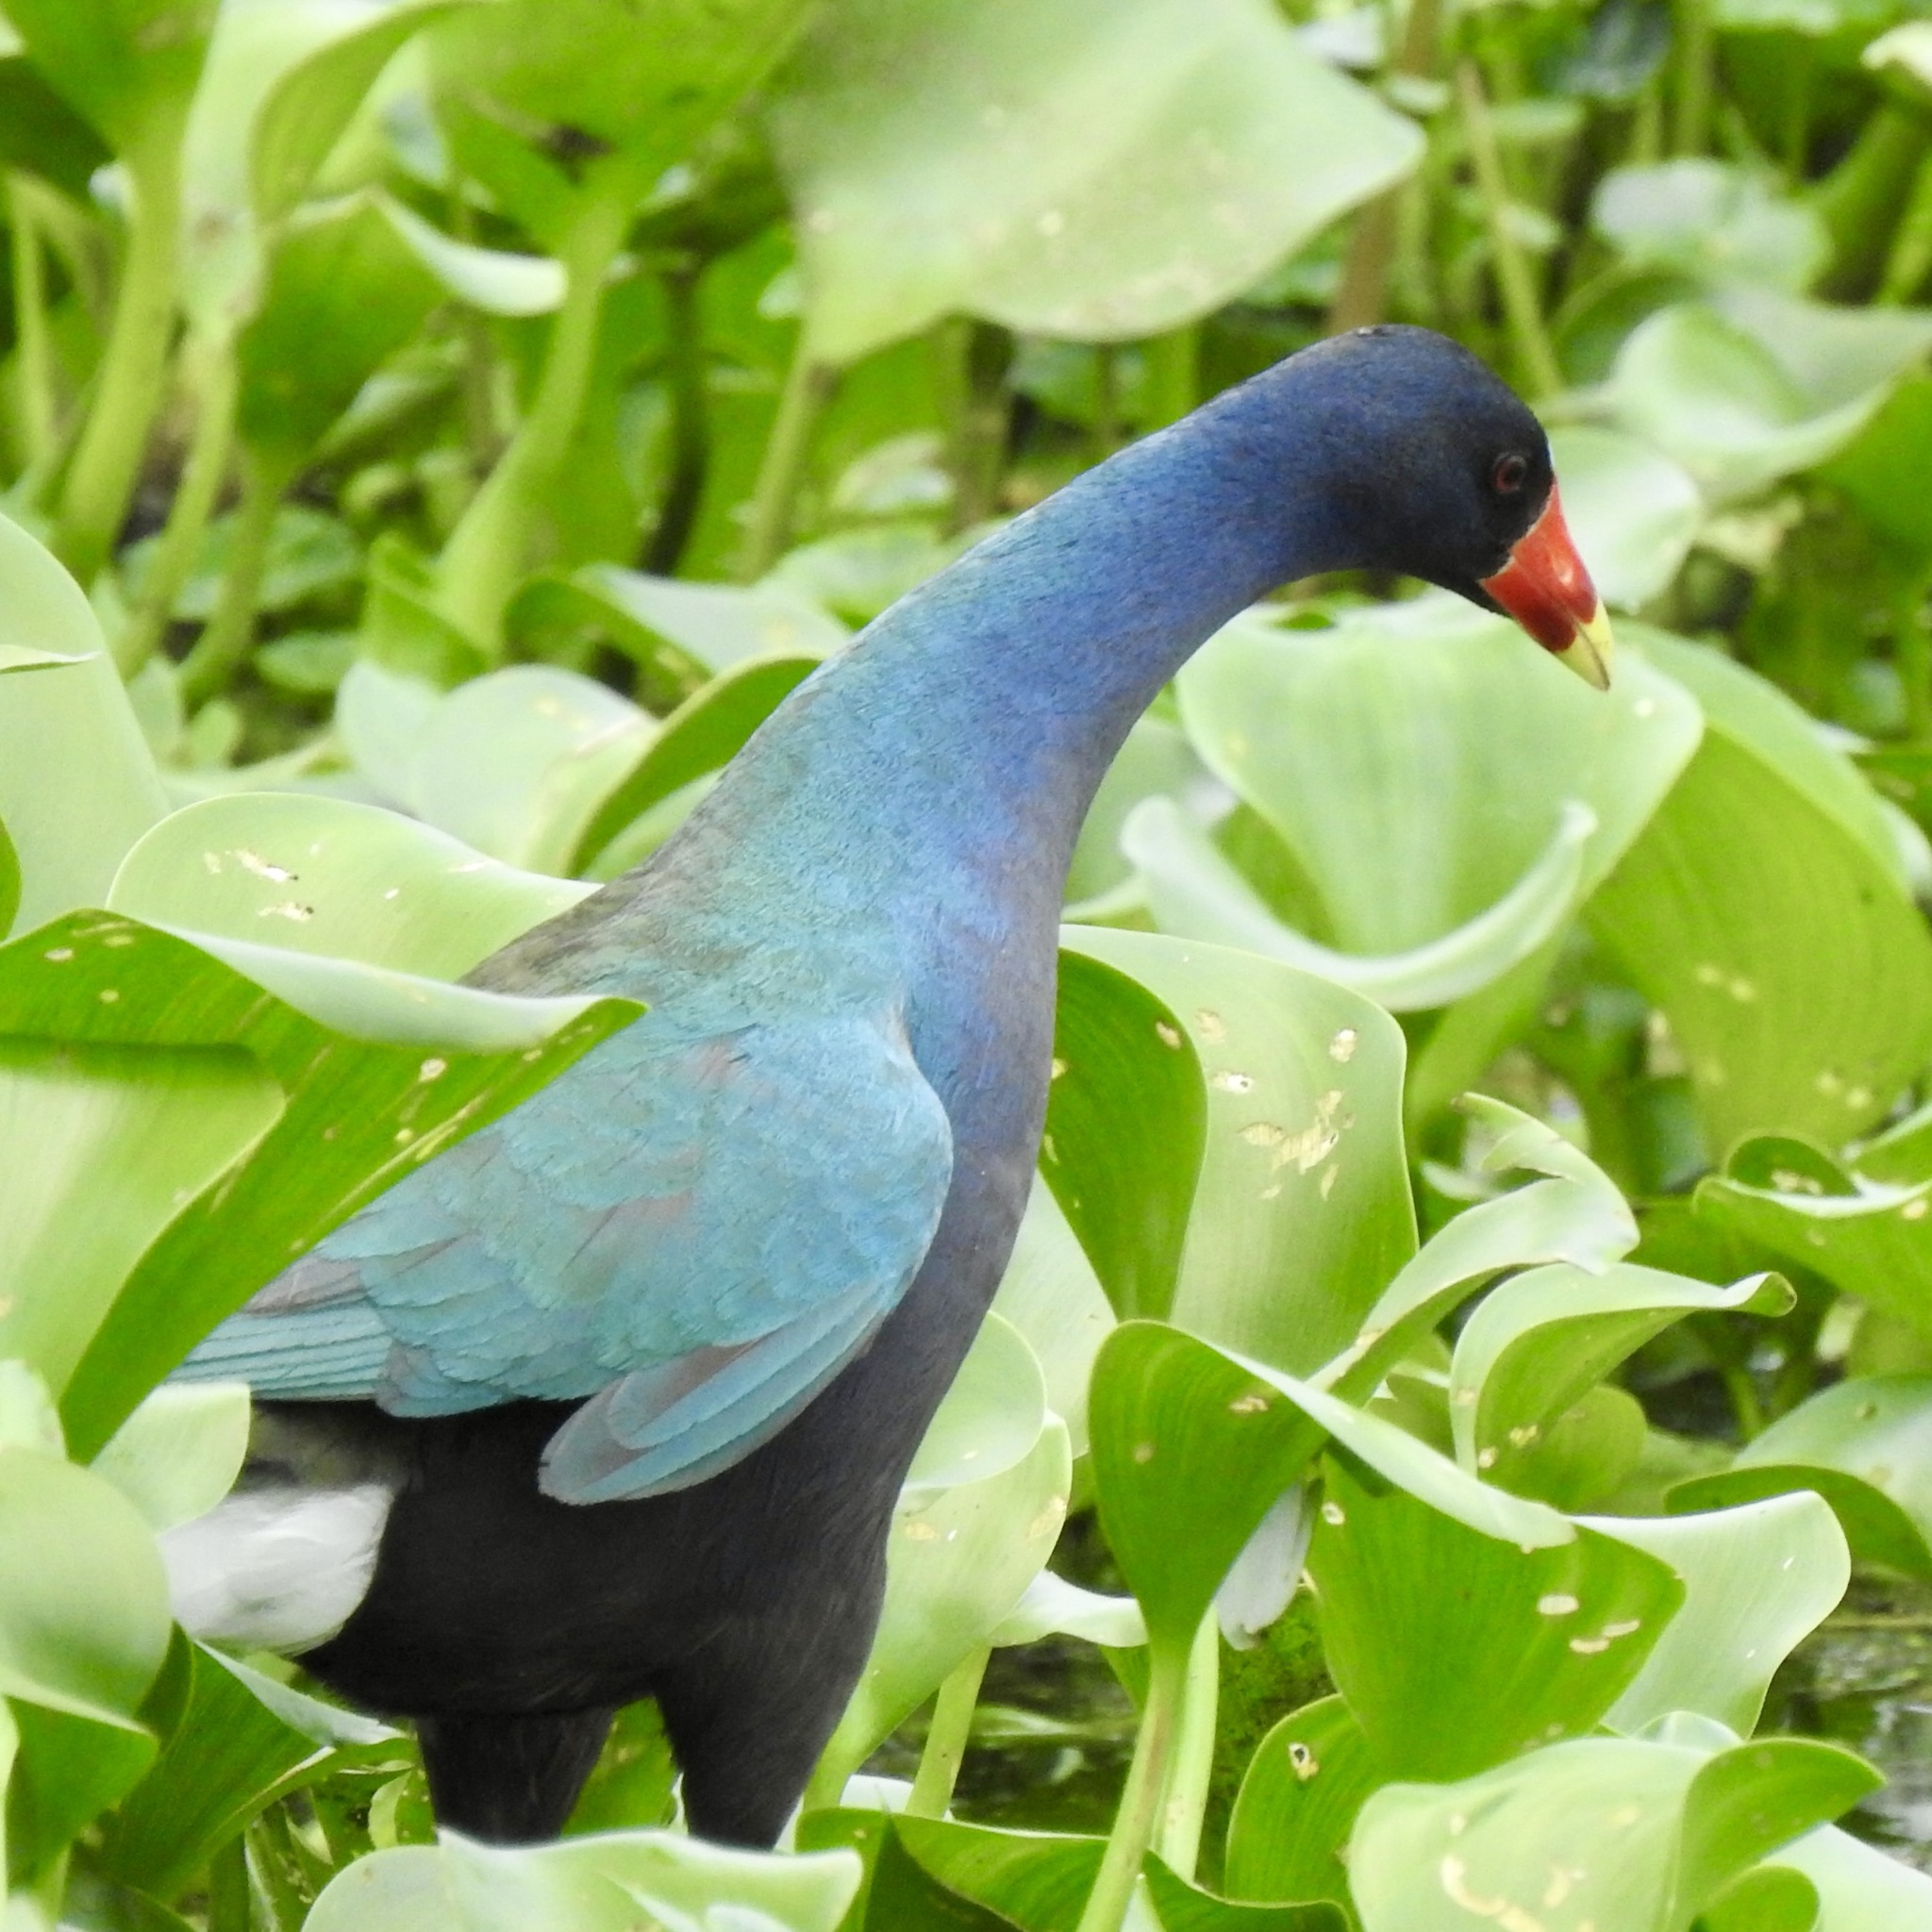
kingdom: Animalia
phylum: Chordata
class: Aves
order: Gruiformes
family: Rallidae
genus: Porphyrio
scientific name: Porphyrio martinica
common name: Purple gallinule
